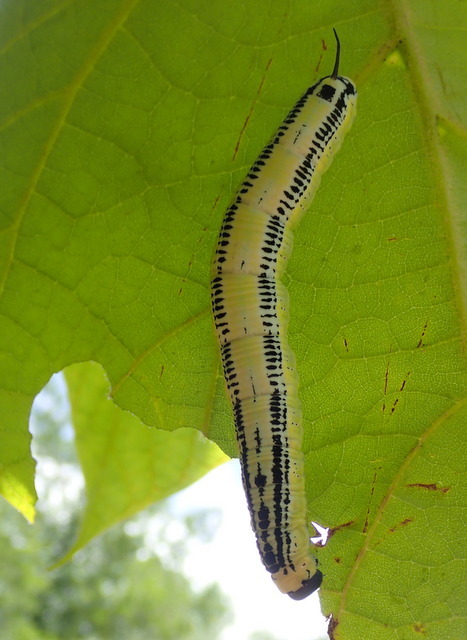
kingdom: Animalia
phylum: Arthropoda
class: Insecta
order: Lepidoptera
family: Sphingidae
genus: Ceratomia
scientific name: Ceratomia catalpae
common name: Catalpa hornworm
